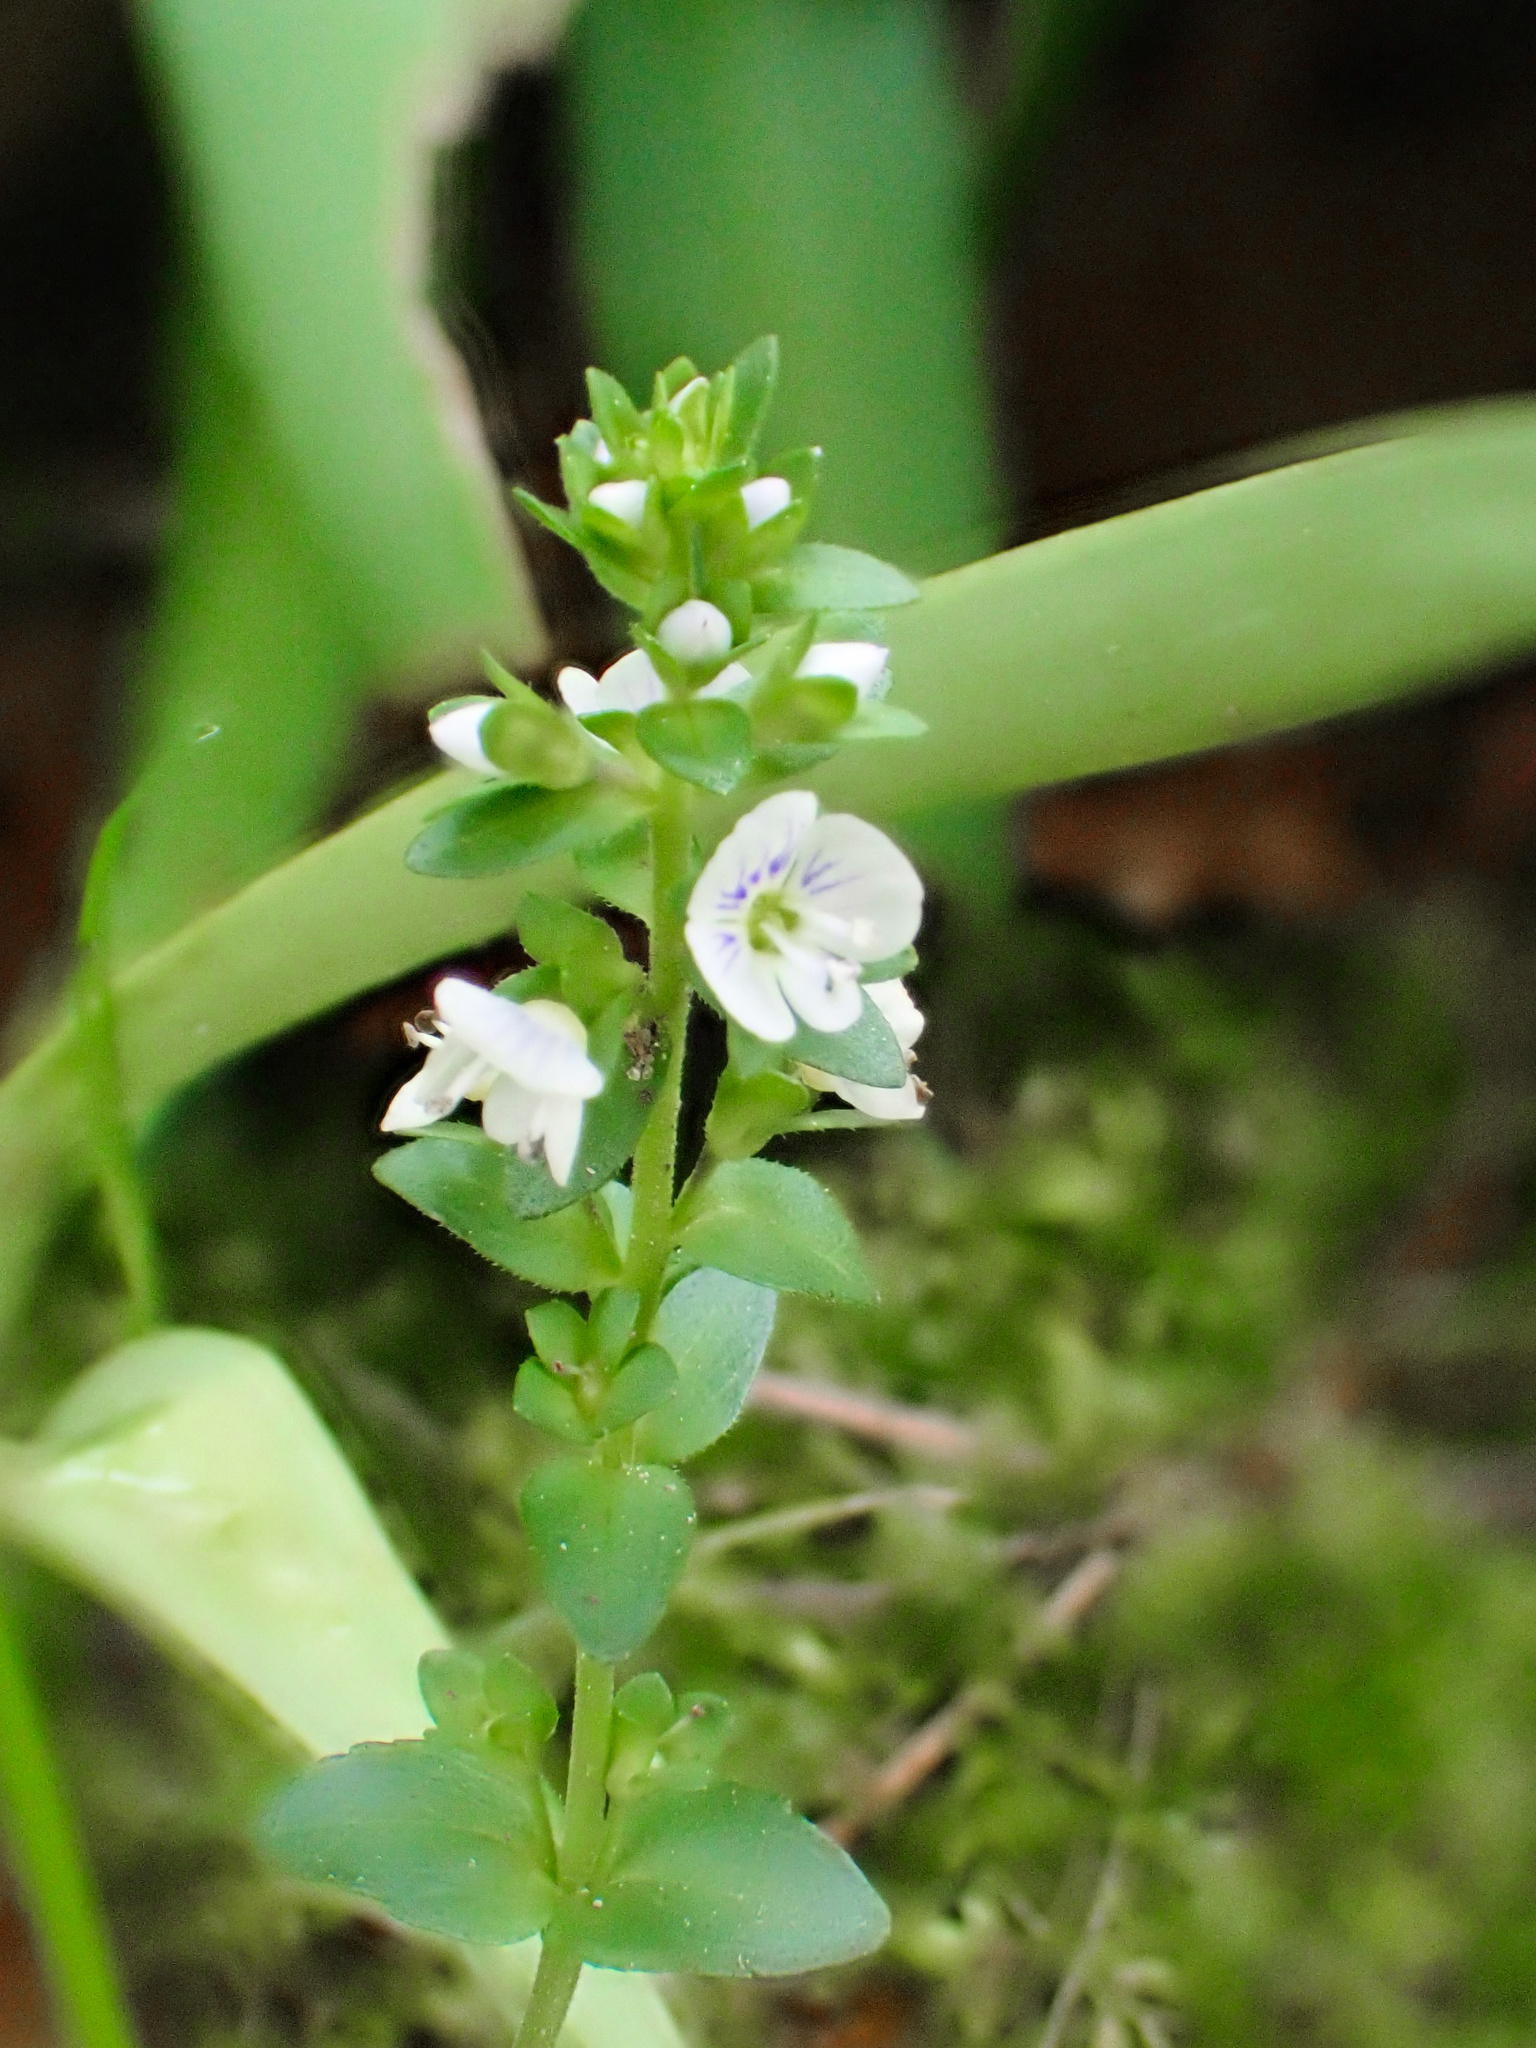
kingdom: Plantae
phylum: Tracheophyta
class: Magnoliopsida
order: Lamiales
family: Plantaginaceae
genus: Veronica
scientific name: Veronica serpyllifolia
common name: Thyme-leaved speedwell
